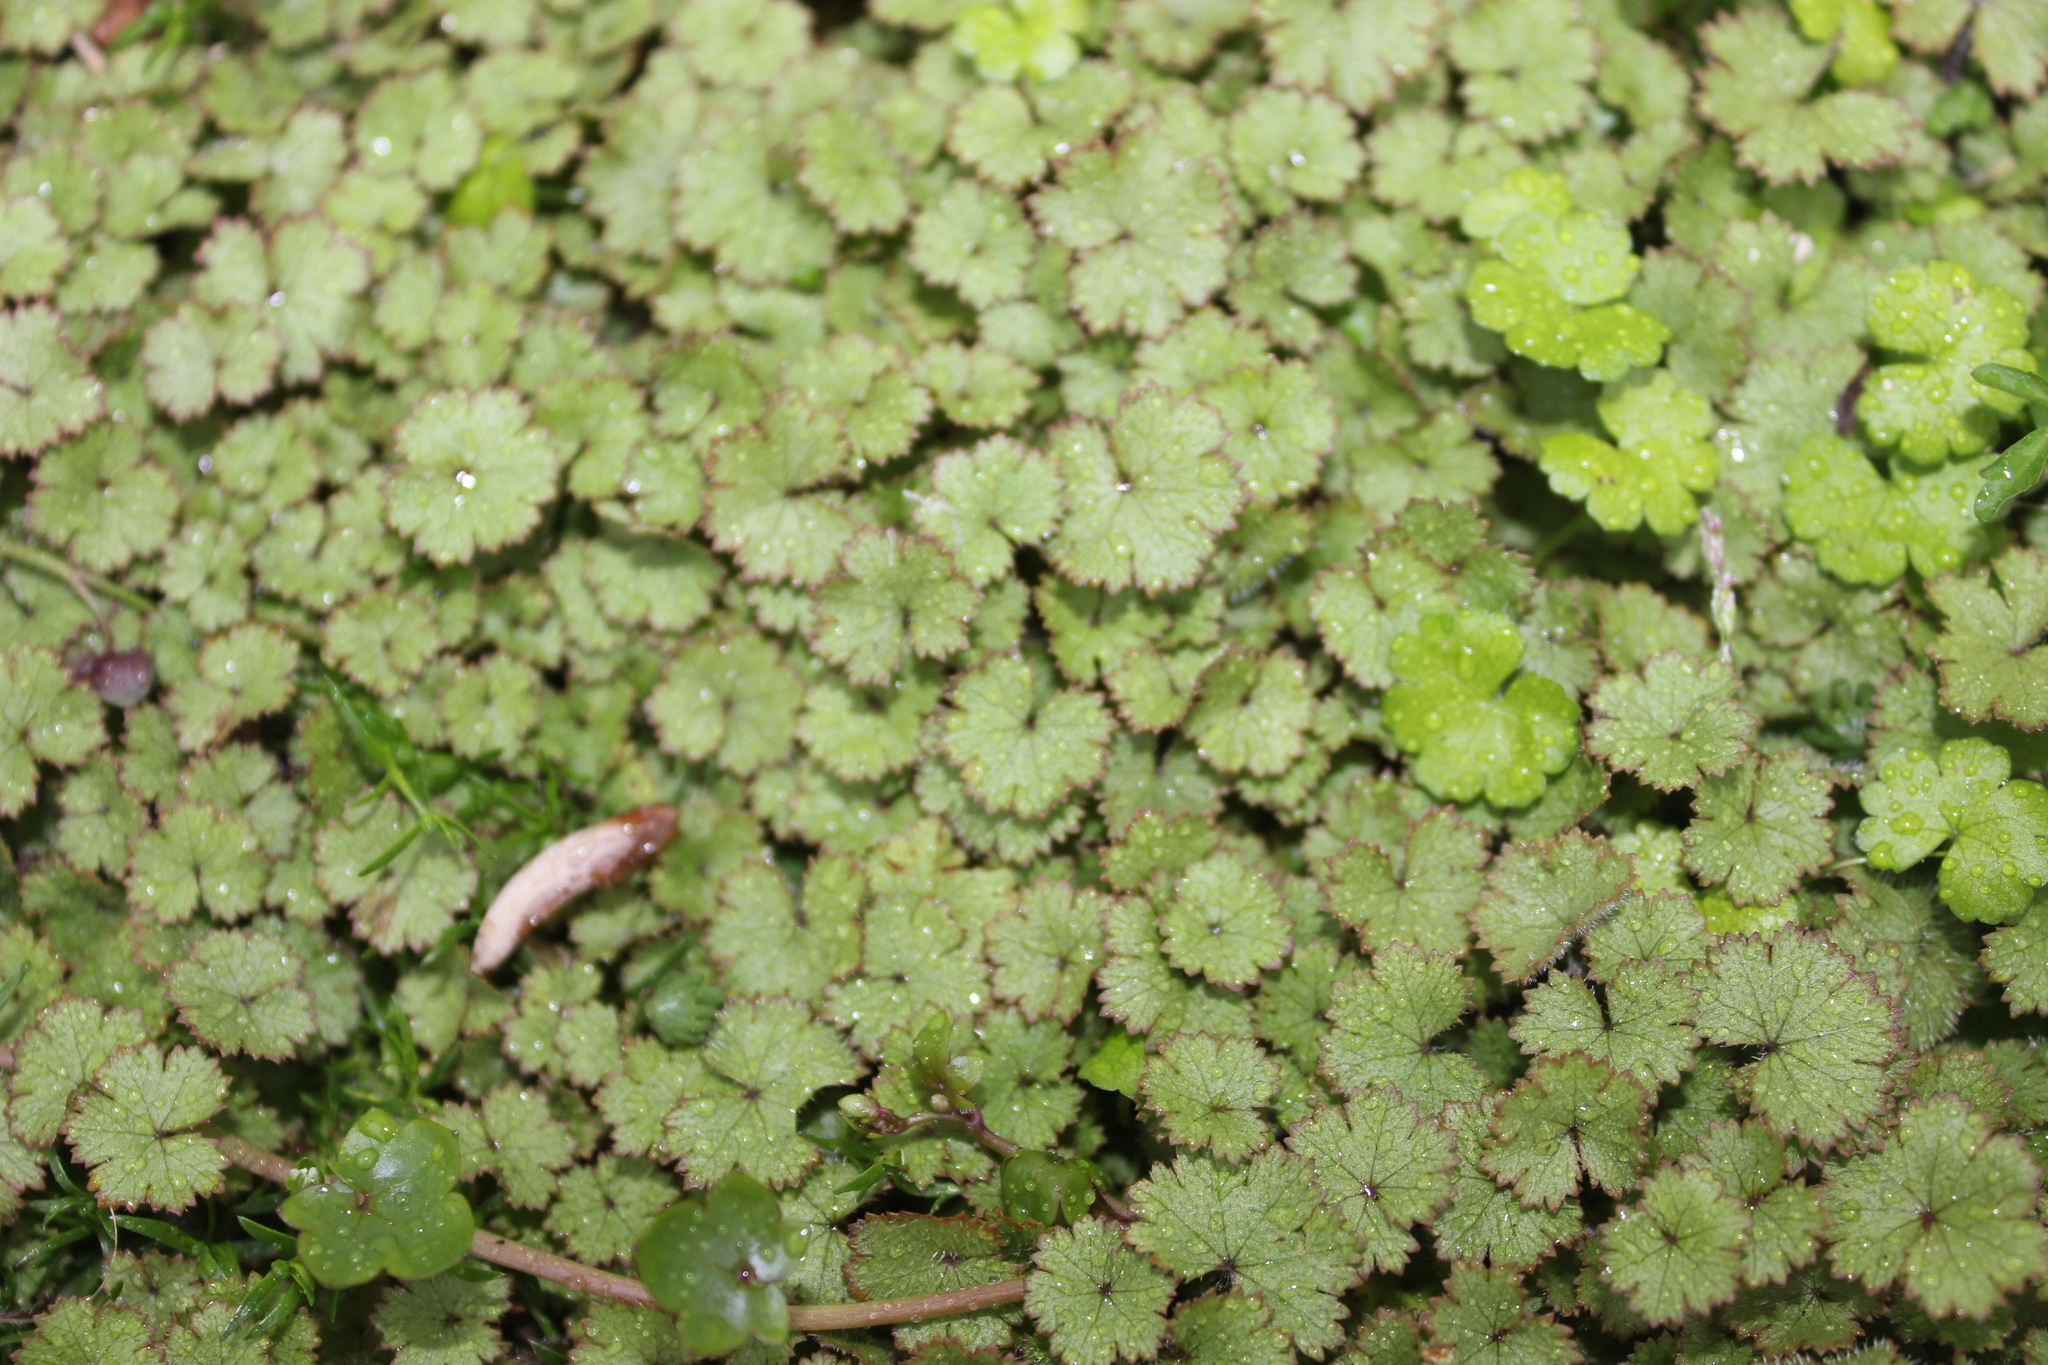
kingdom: Plantae
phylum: Tracheophyta
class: Magnoliopsida
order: Apiales
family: Araliaceae
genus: Hydrocotyle
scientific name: Hydrocotyle moschata
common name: Hairy pennywort
